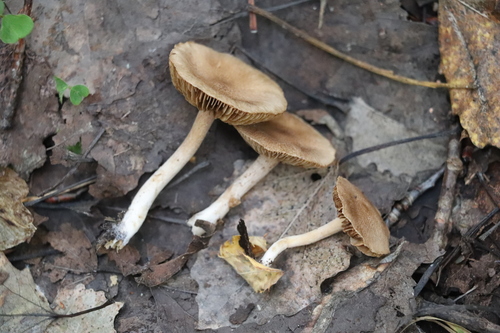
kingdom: Fungi
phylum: Basidiomycota
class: Agaricomycetes
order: Agaricales
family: Inocybaceae
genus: Inocybe
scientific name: Inocybe
